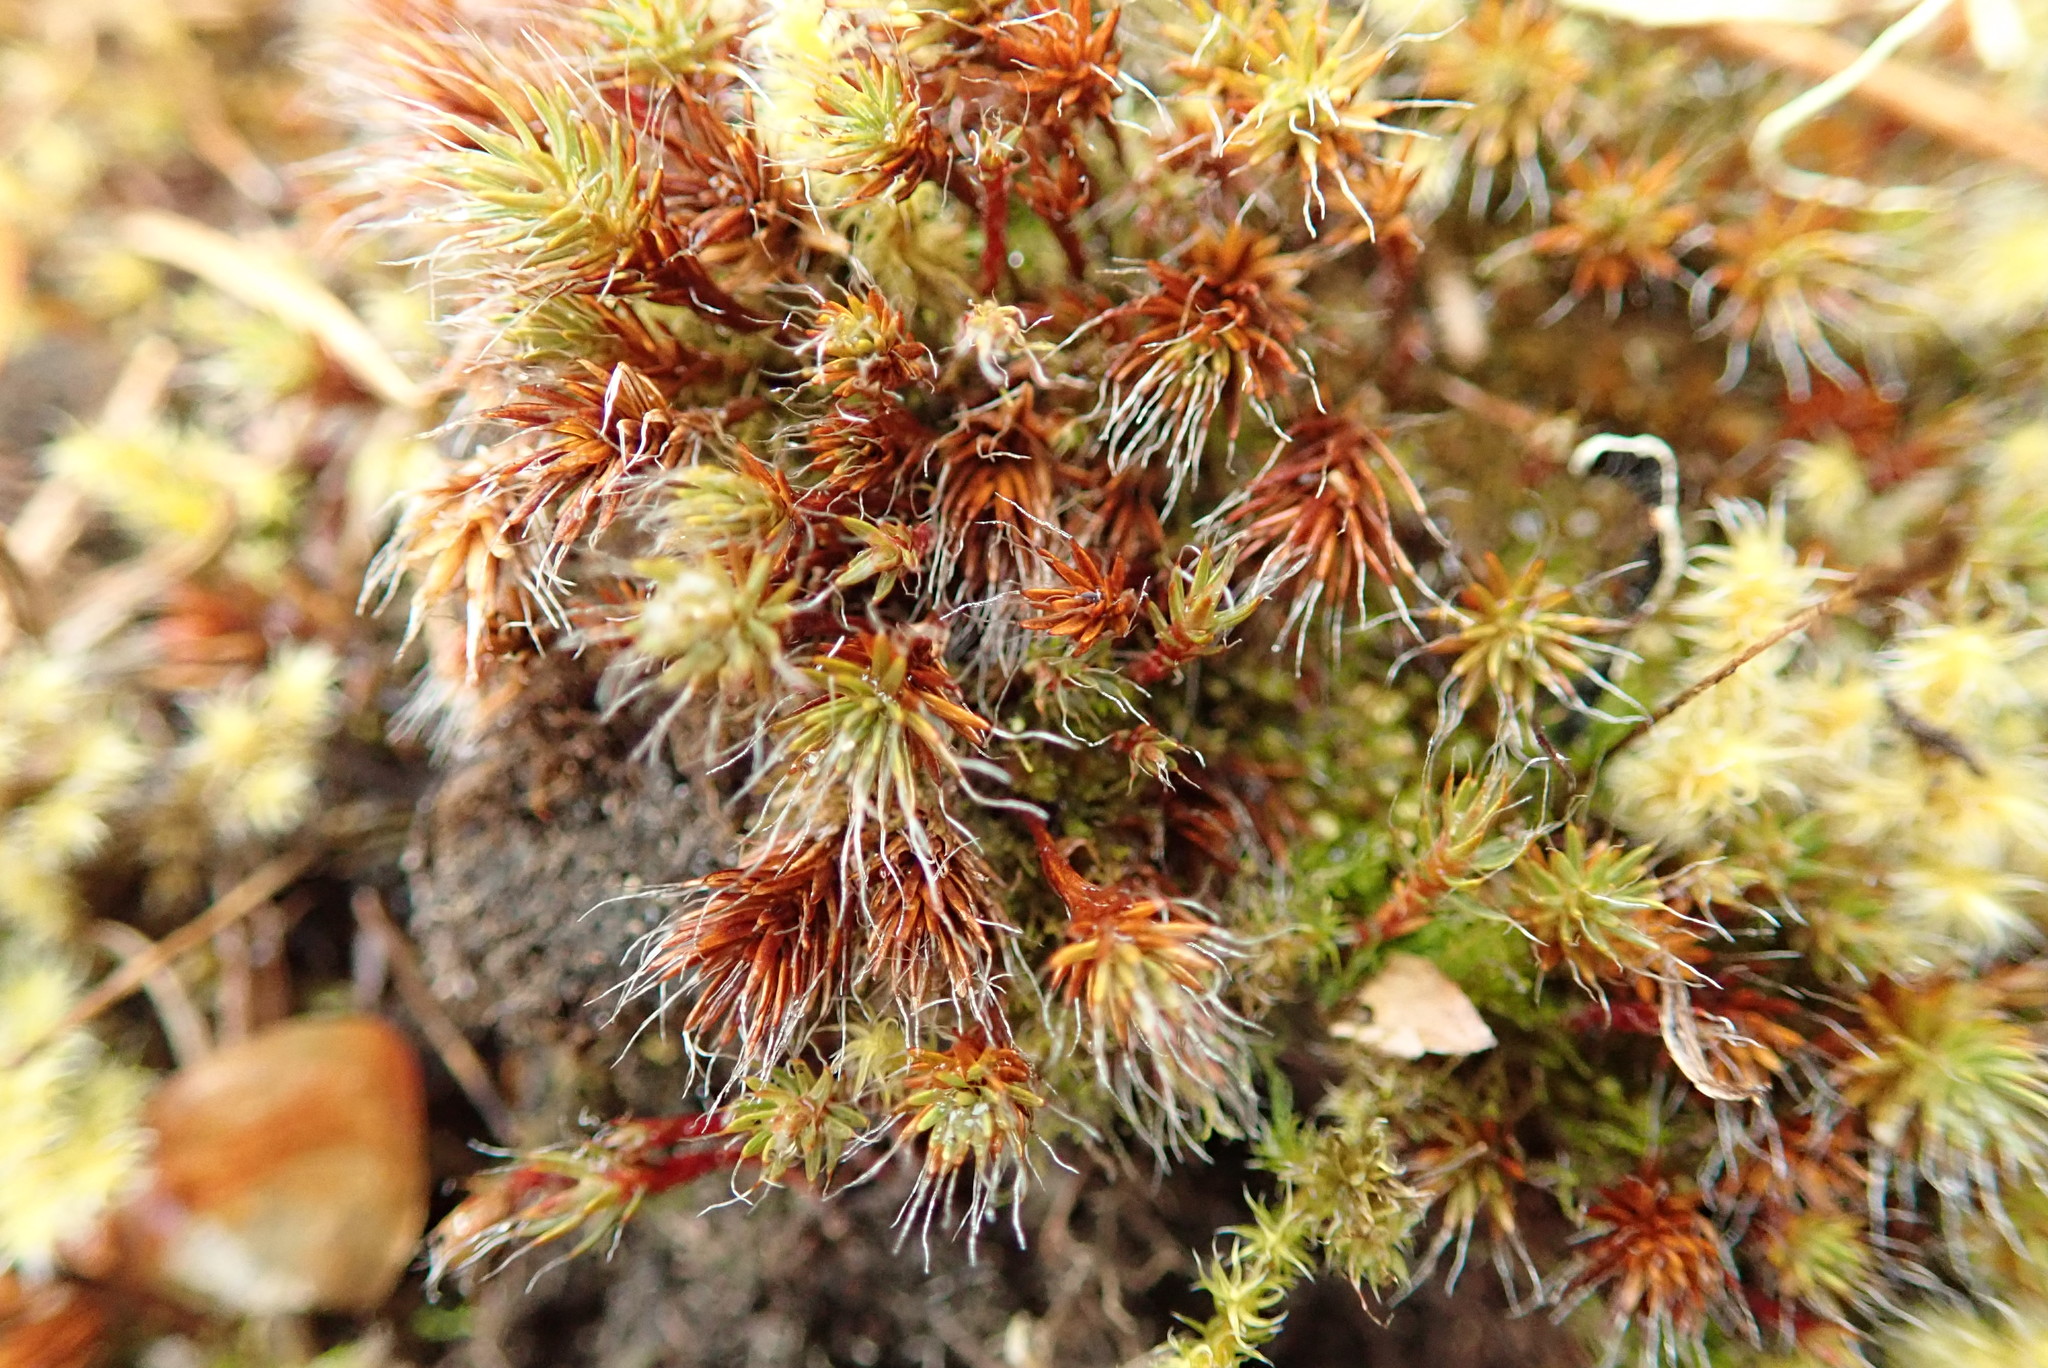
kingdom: Plantae
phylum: Bryophyta
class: Polytrichopsida
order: Polytrichales
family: Polytrichaceae
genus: Polytrichum
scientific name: Polytrichum piliferum
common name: Bristly haircap
